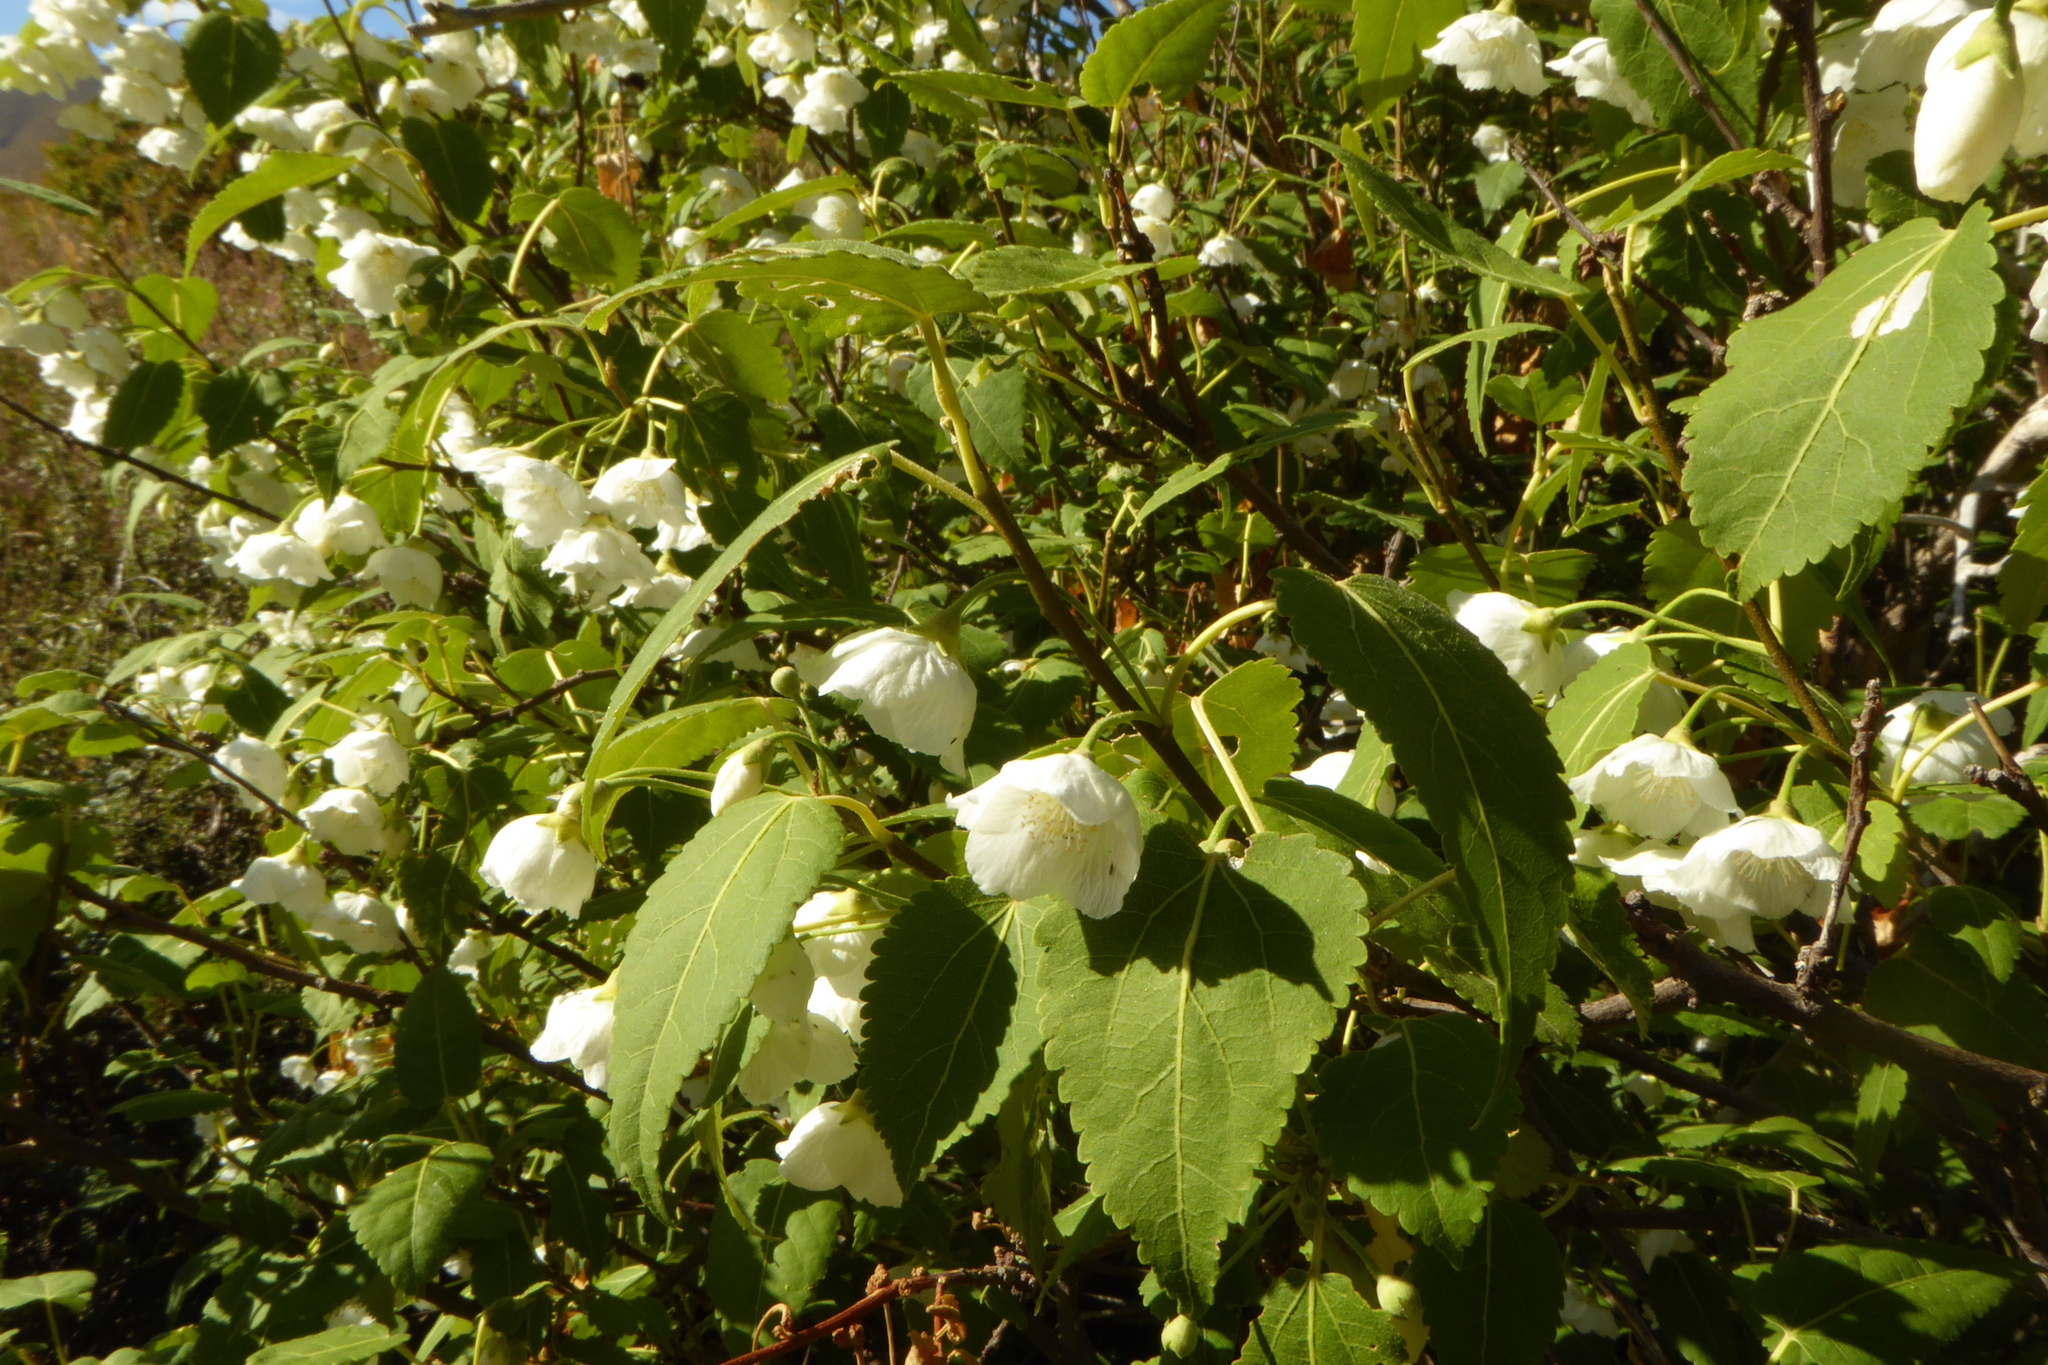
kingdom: Plantae
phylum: Tracheophyta
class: Magnoliopsida
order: Malvales
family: Malvaceae
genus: Hoheria
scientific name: Hoheria lyallii
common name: Lacebark
